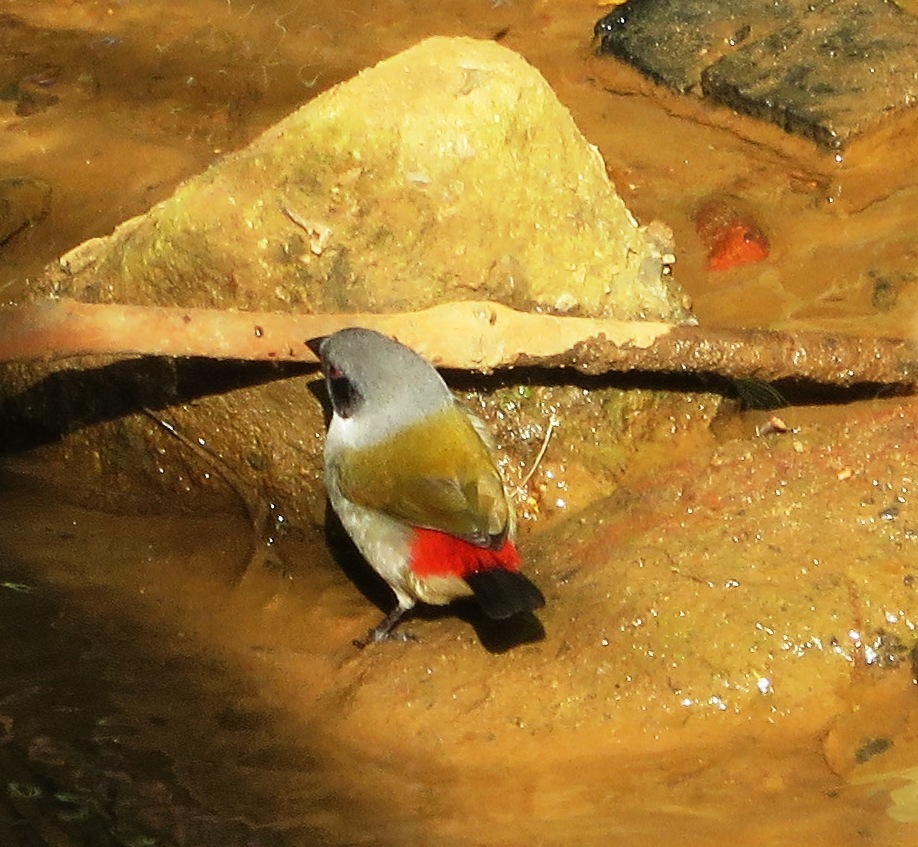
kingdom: Animalia
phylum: Chordata
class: Aves
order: Passeriformes
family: Estrildidae
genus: Coccopygia
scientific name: Coccopygia melanotis
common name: Swee waxbill
